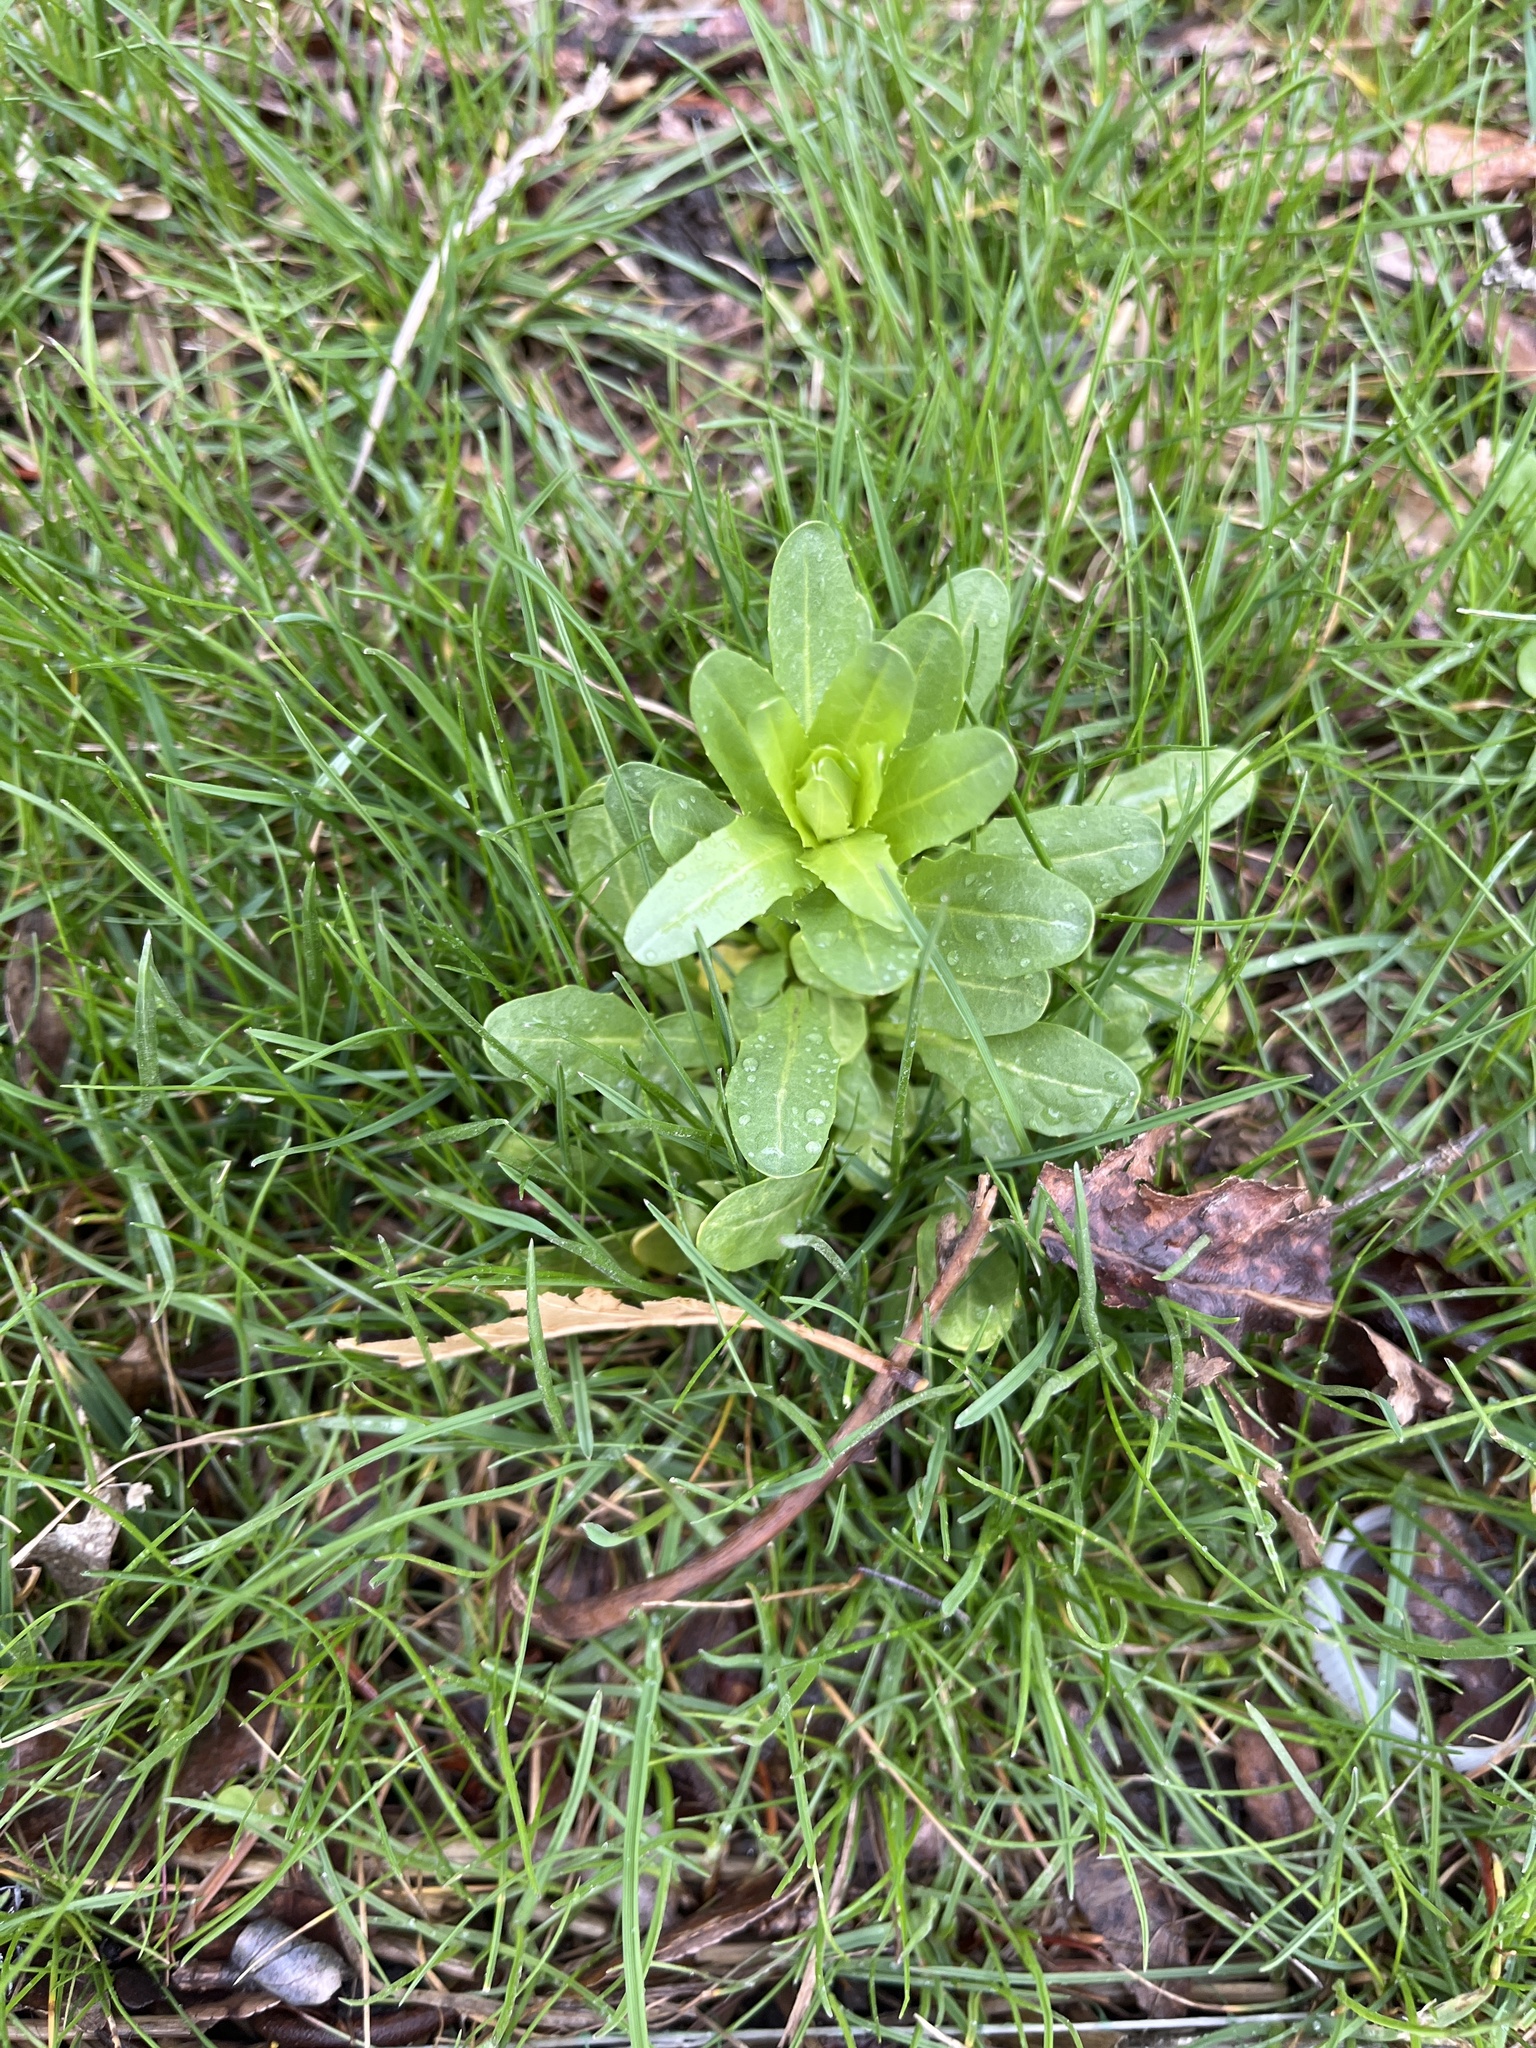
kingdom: Plantae
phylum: Tracheophyta
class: Magnoliopsida
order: Brassicales
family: Brassicaceae
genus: Thlaspi
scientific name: Thlaspi arvense
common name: Field pennycress
